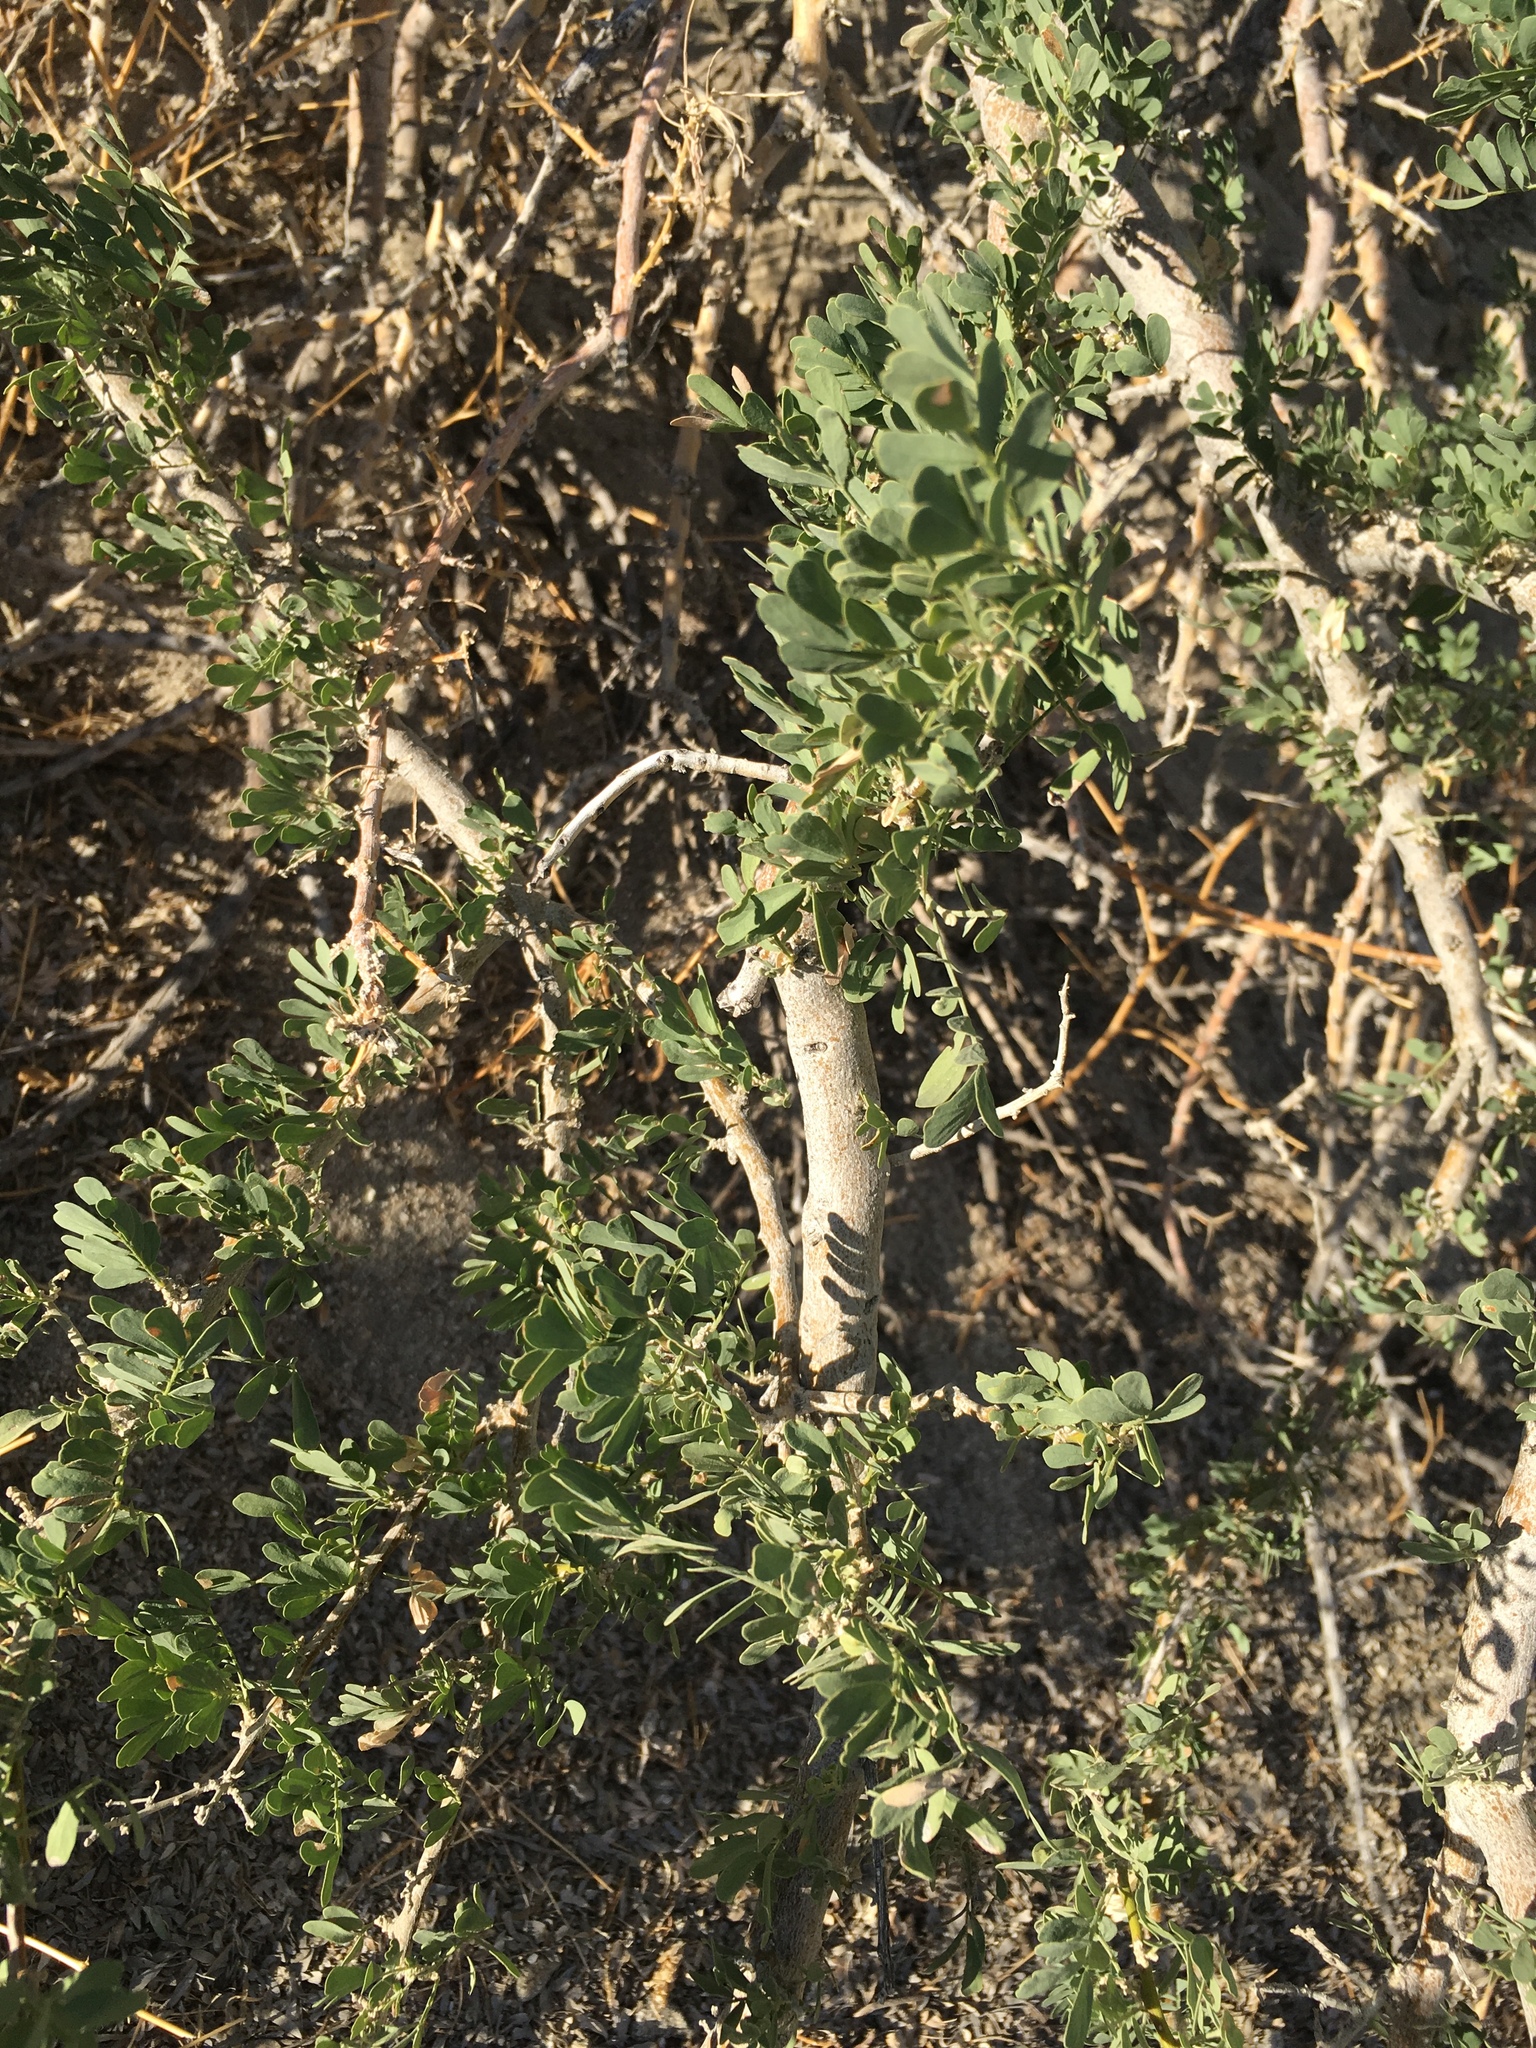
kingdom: Plantae
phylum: Tracheophyta
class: Magnoliopsida
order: Fabales
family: Fabaceae
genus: Olneya
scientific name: Olneya tesota
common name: Desert ironwood
